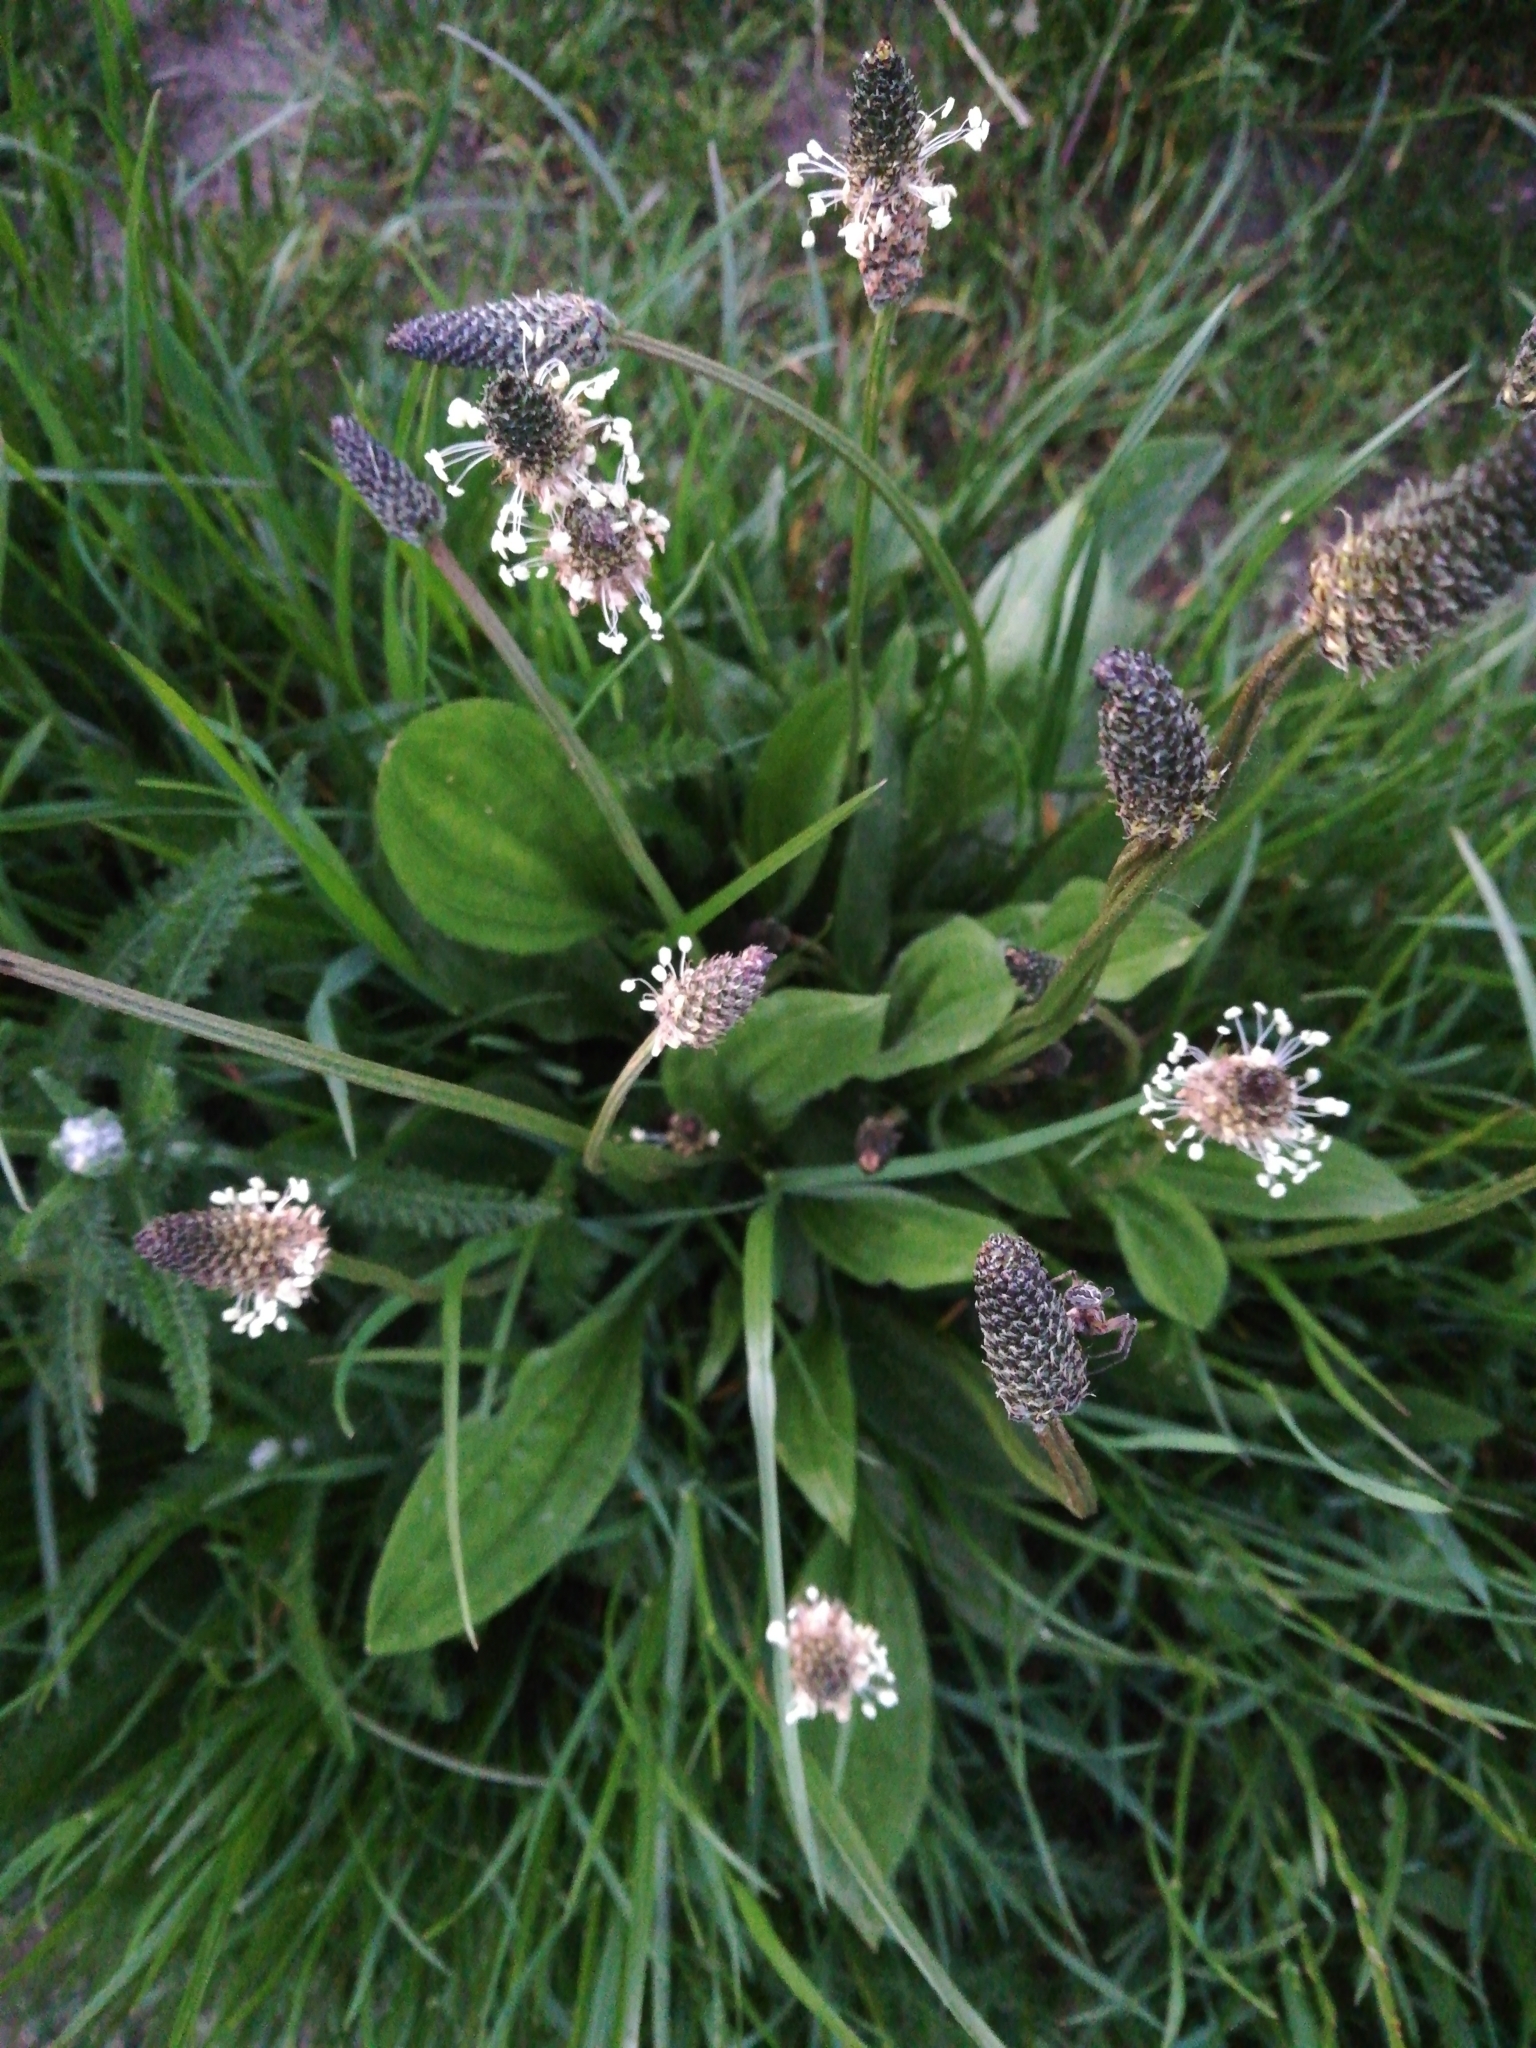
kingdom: Plantae
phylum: Tracheophyta
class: Magnoliopsida
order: Lamiales
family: Plantaginaceae
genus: Plantago
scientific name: Plantago lanceolata
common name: Ribwort plantain
